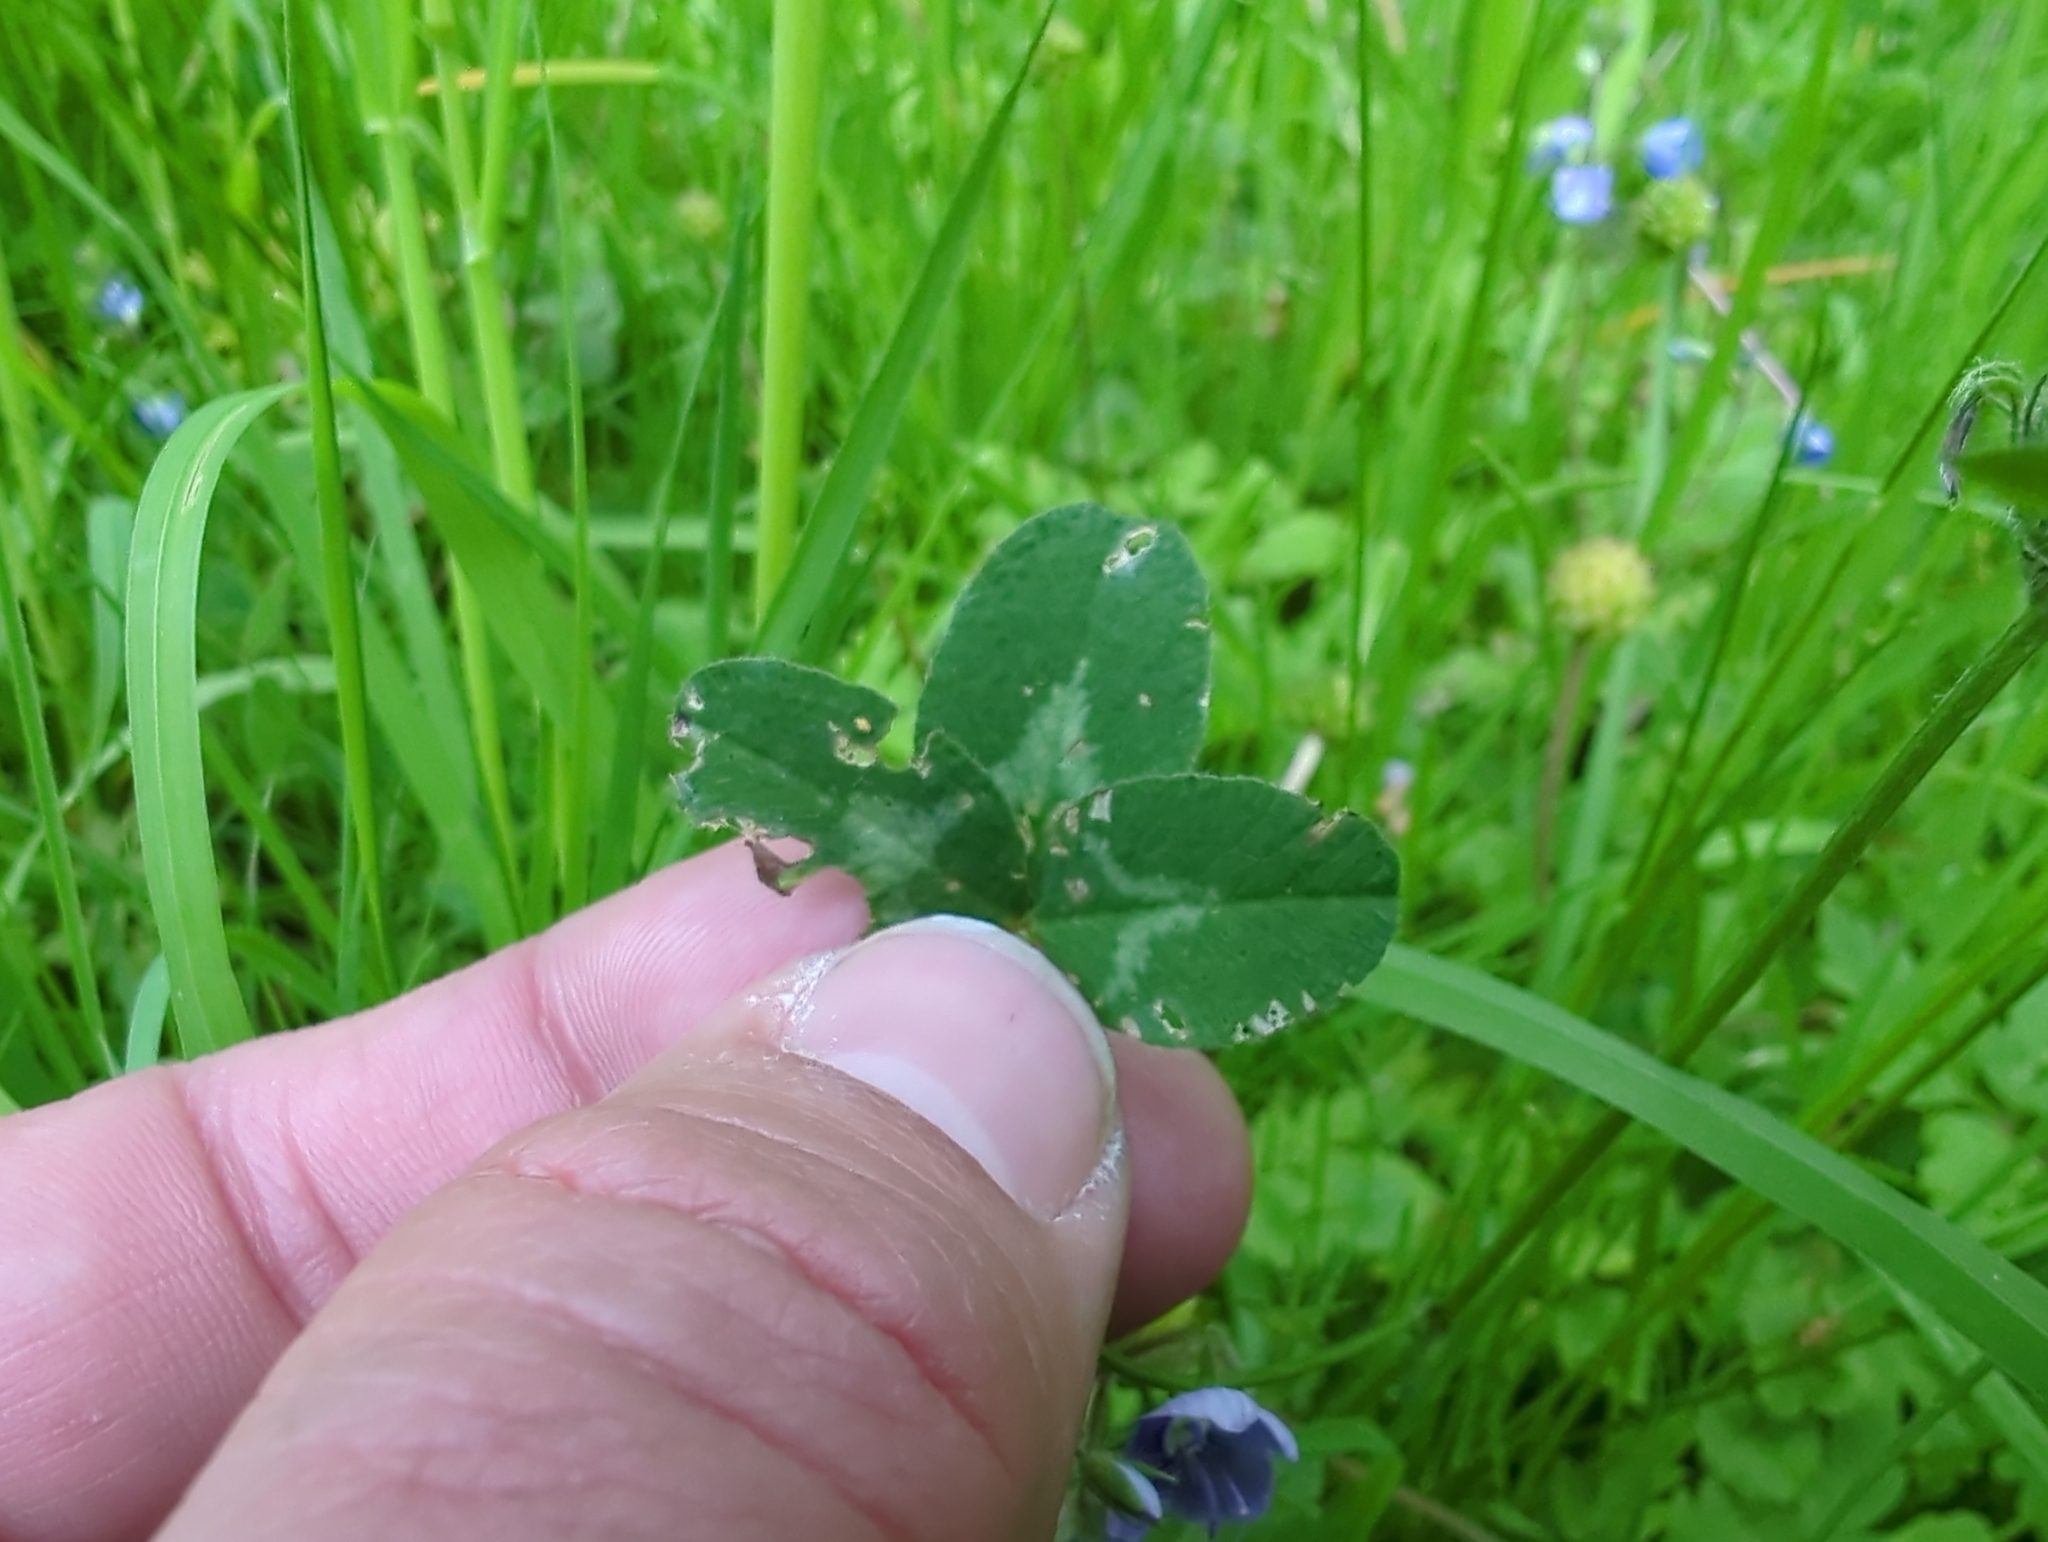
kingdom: Plantae
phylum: Tracheophyta
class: Magnoliopsida
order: Fabales
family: Fabaceae
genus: Trifolium
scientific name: Trifolium pratense
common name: Red clover
